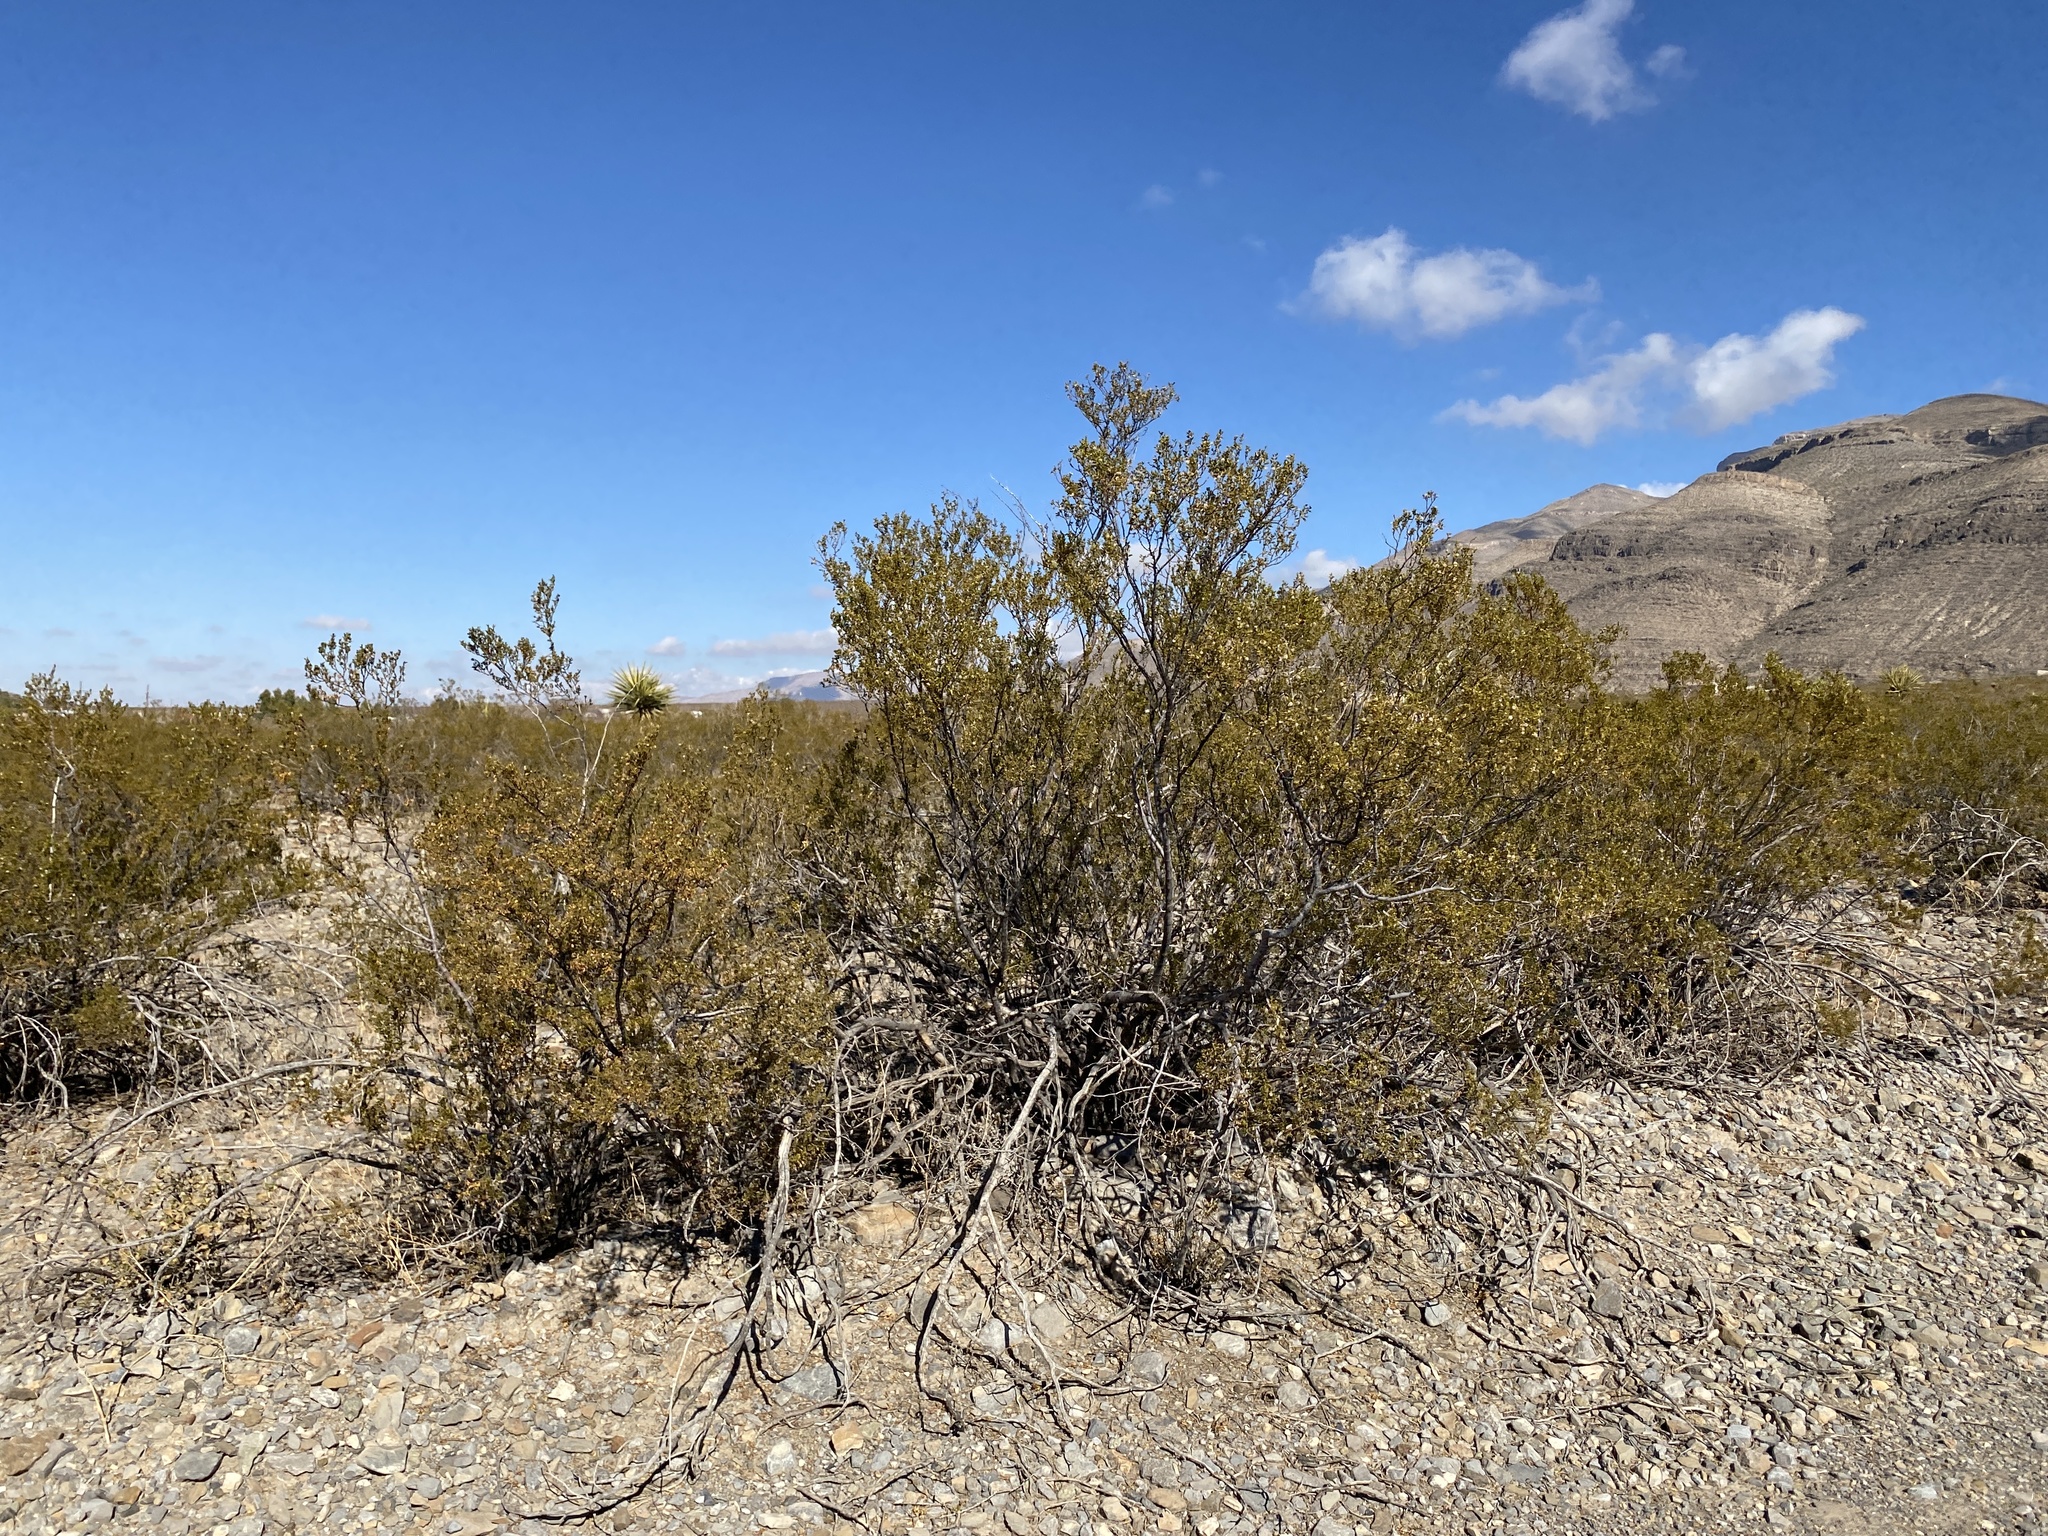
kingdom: Plantae
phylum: Tracheophyta
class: Magnoliopsida
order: Zygophyllales
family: Zygophyllaceae
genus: Larrea
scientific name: Larrea tridentata
